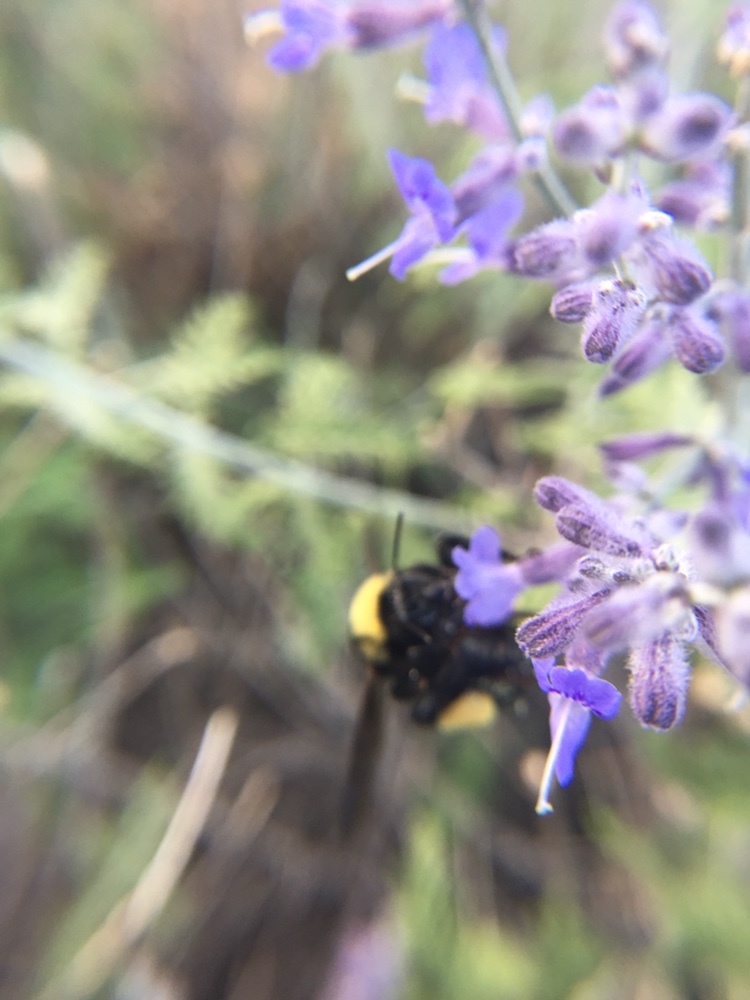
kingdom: Animalia
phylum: Arthropoda
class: Insecta
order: Hymenoptera
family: Apidae
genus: Bombus
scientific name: Bombus pensylvanicus
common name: Bumble bee
